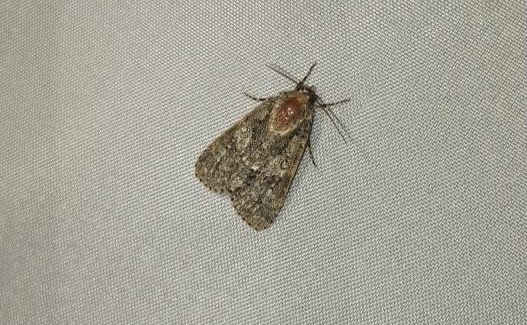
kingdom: Animalia
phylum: Arthropoda
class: Insecta
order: Lepidoptera
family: Noctuidae
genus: Acronicta
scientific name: Acronicta rumicis
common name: Knot grass
